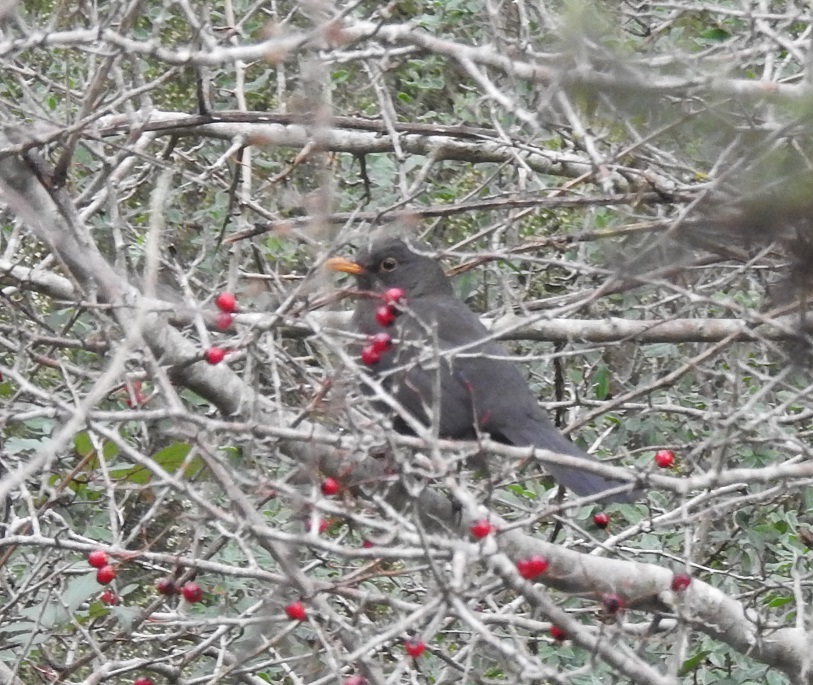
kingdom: Animalia
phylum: Chordata
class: Aves
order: Passeriformes
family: Turdidae
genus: Turdus
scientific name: Turdus merula
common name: Common blackbird
